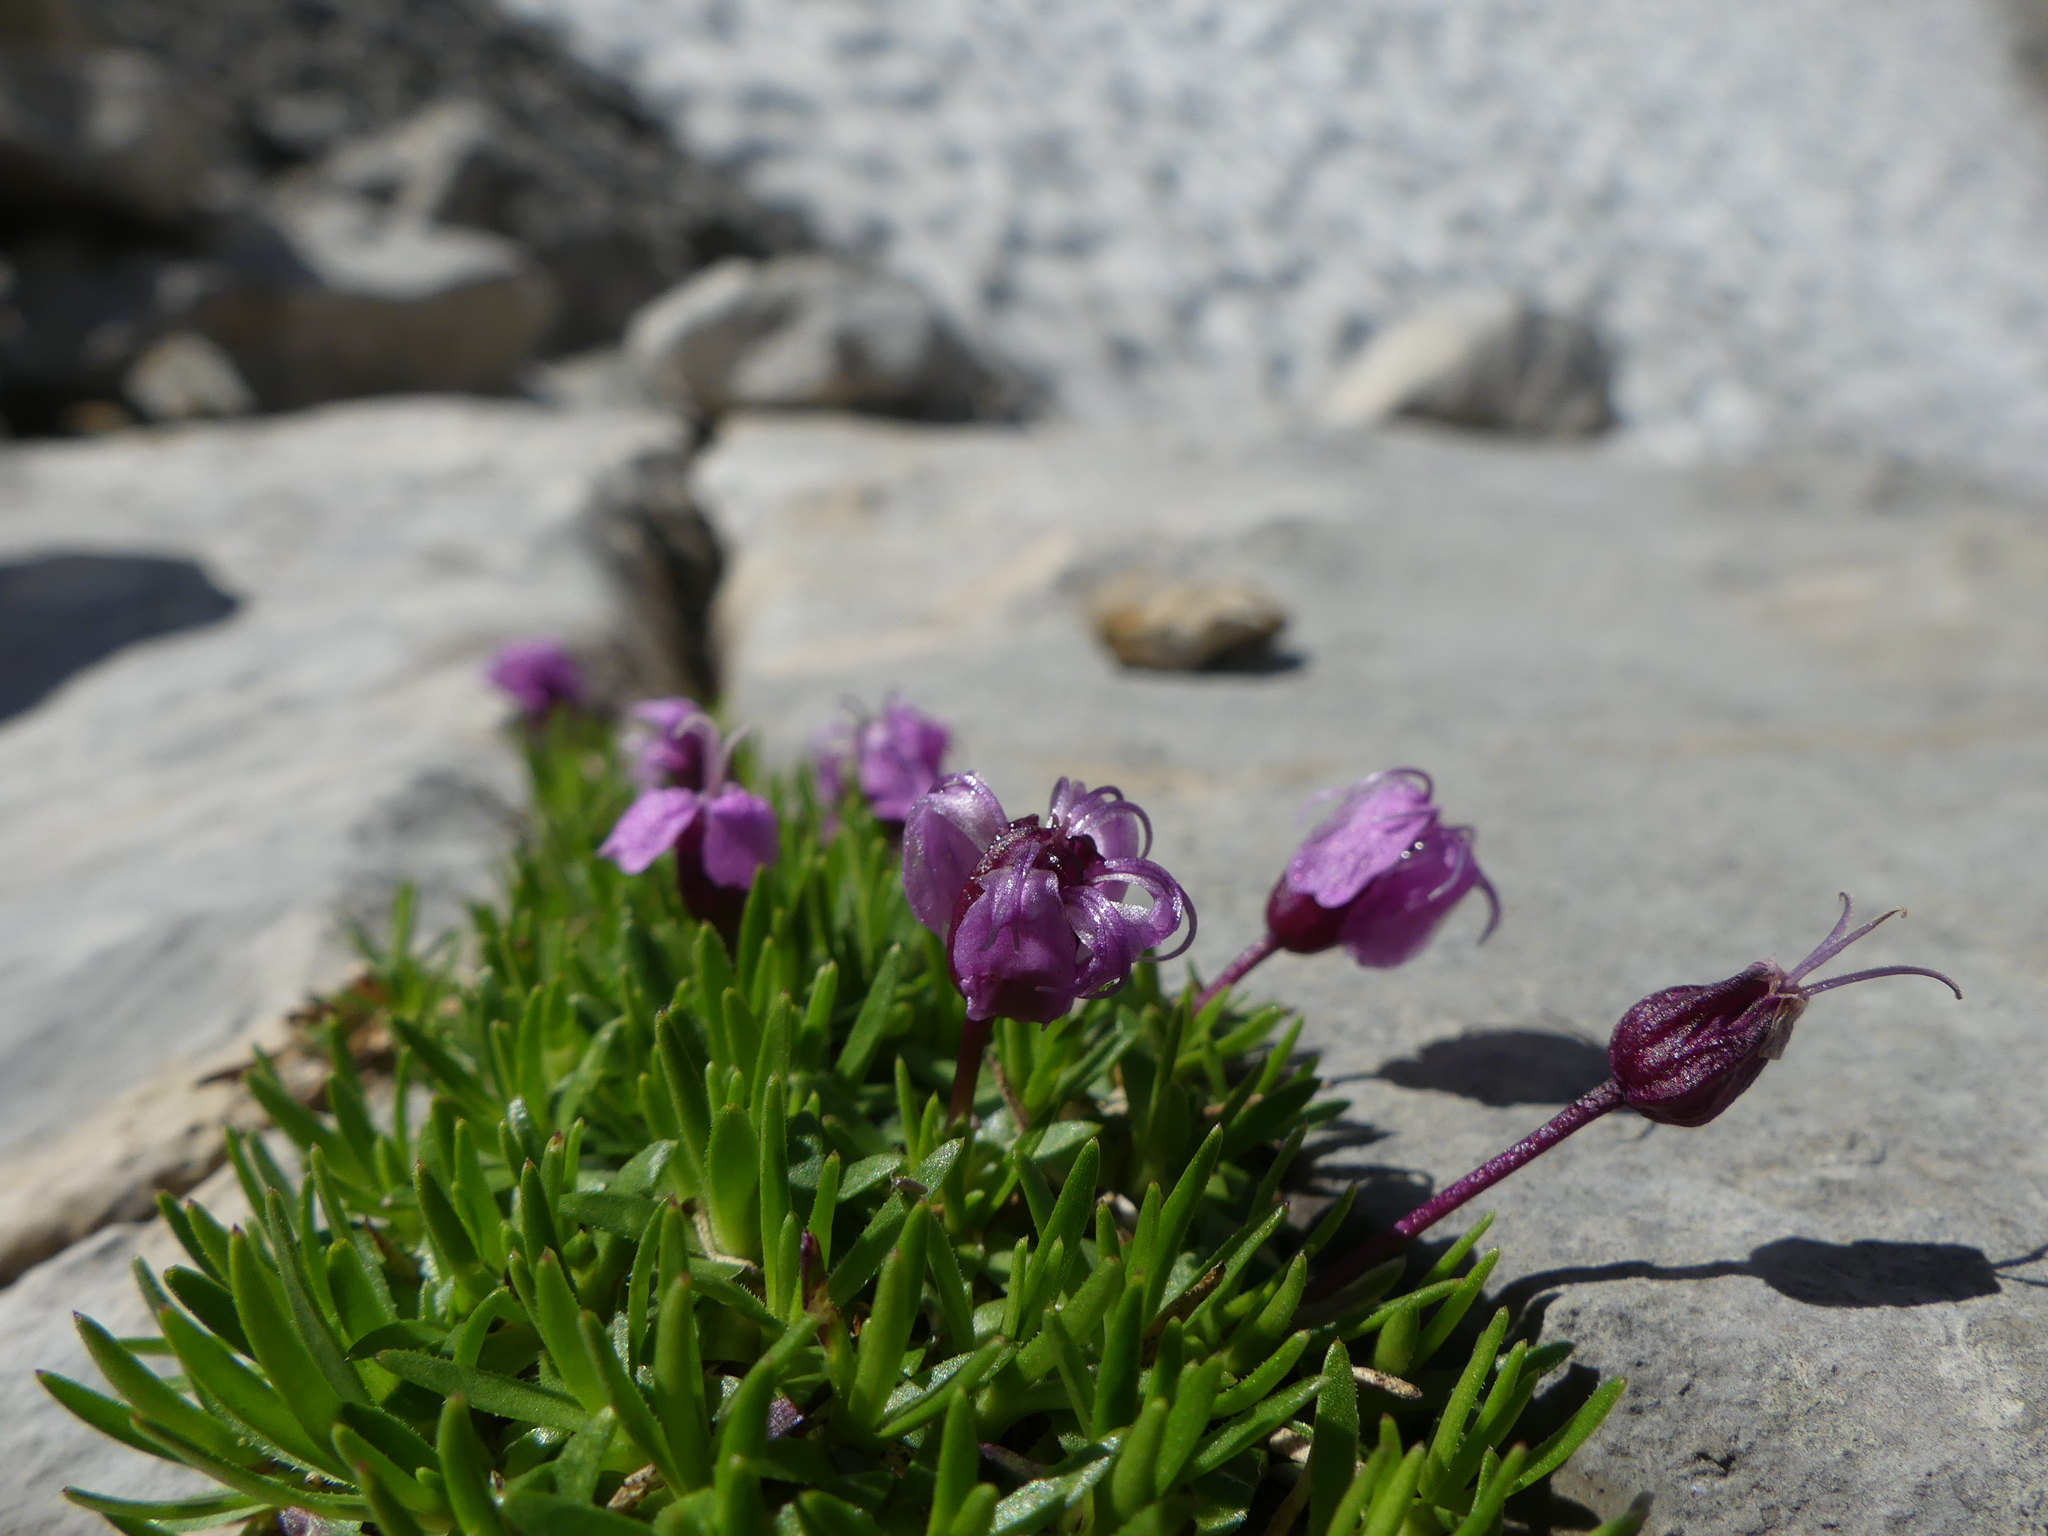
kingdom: Plantae
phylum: Tracheophyta
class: Magnoliopsida
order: Caryophyllales
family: Caryophyllaceae
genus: Silene
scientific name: Silene acaulis
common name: Moss campion
